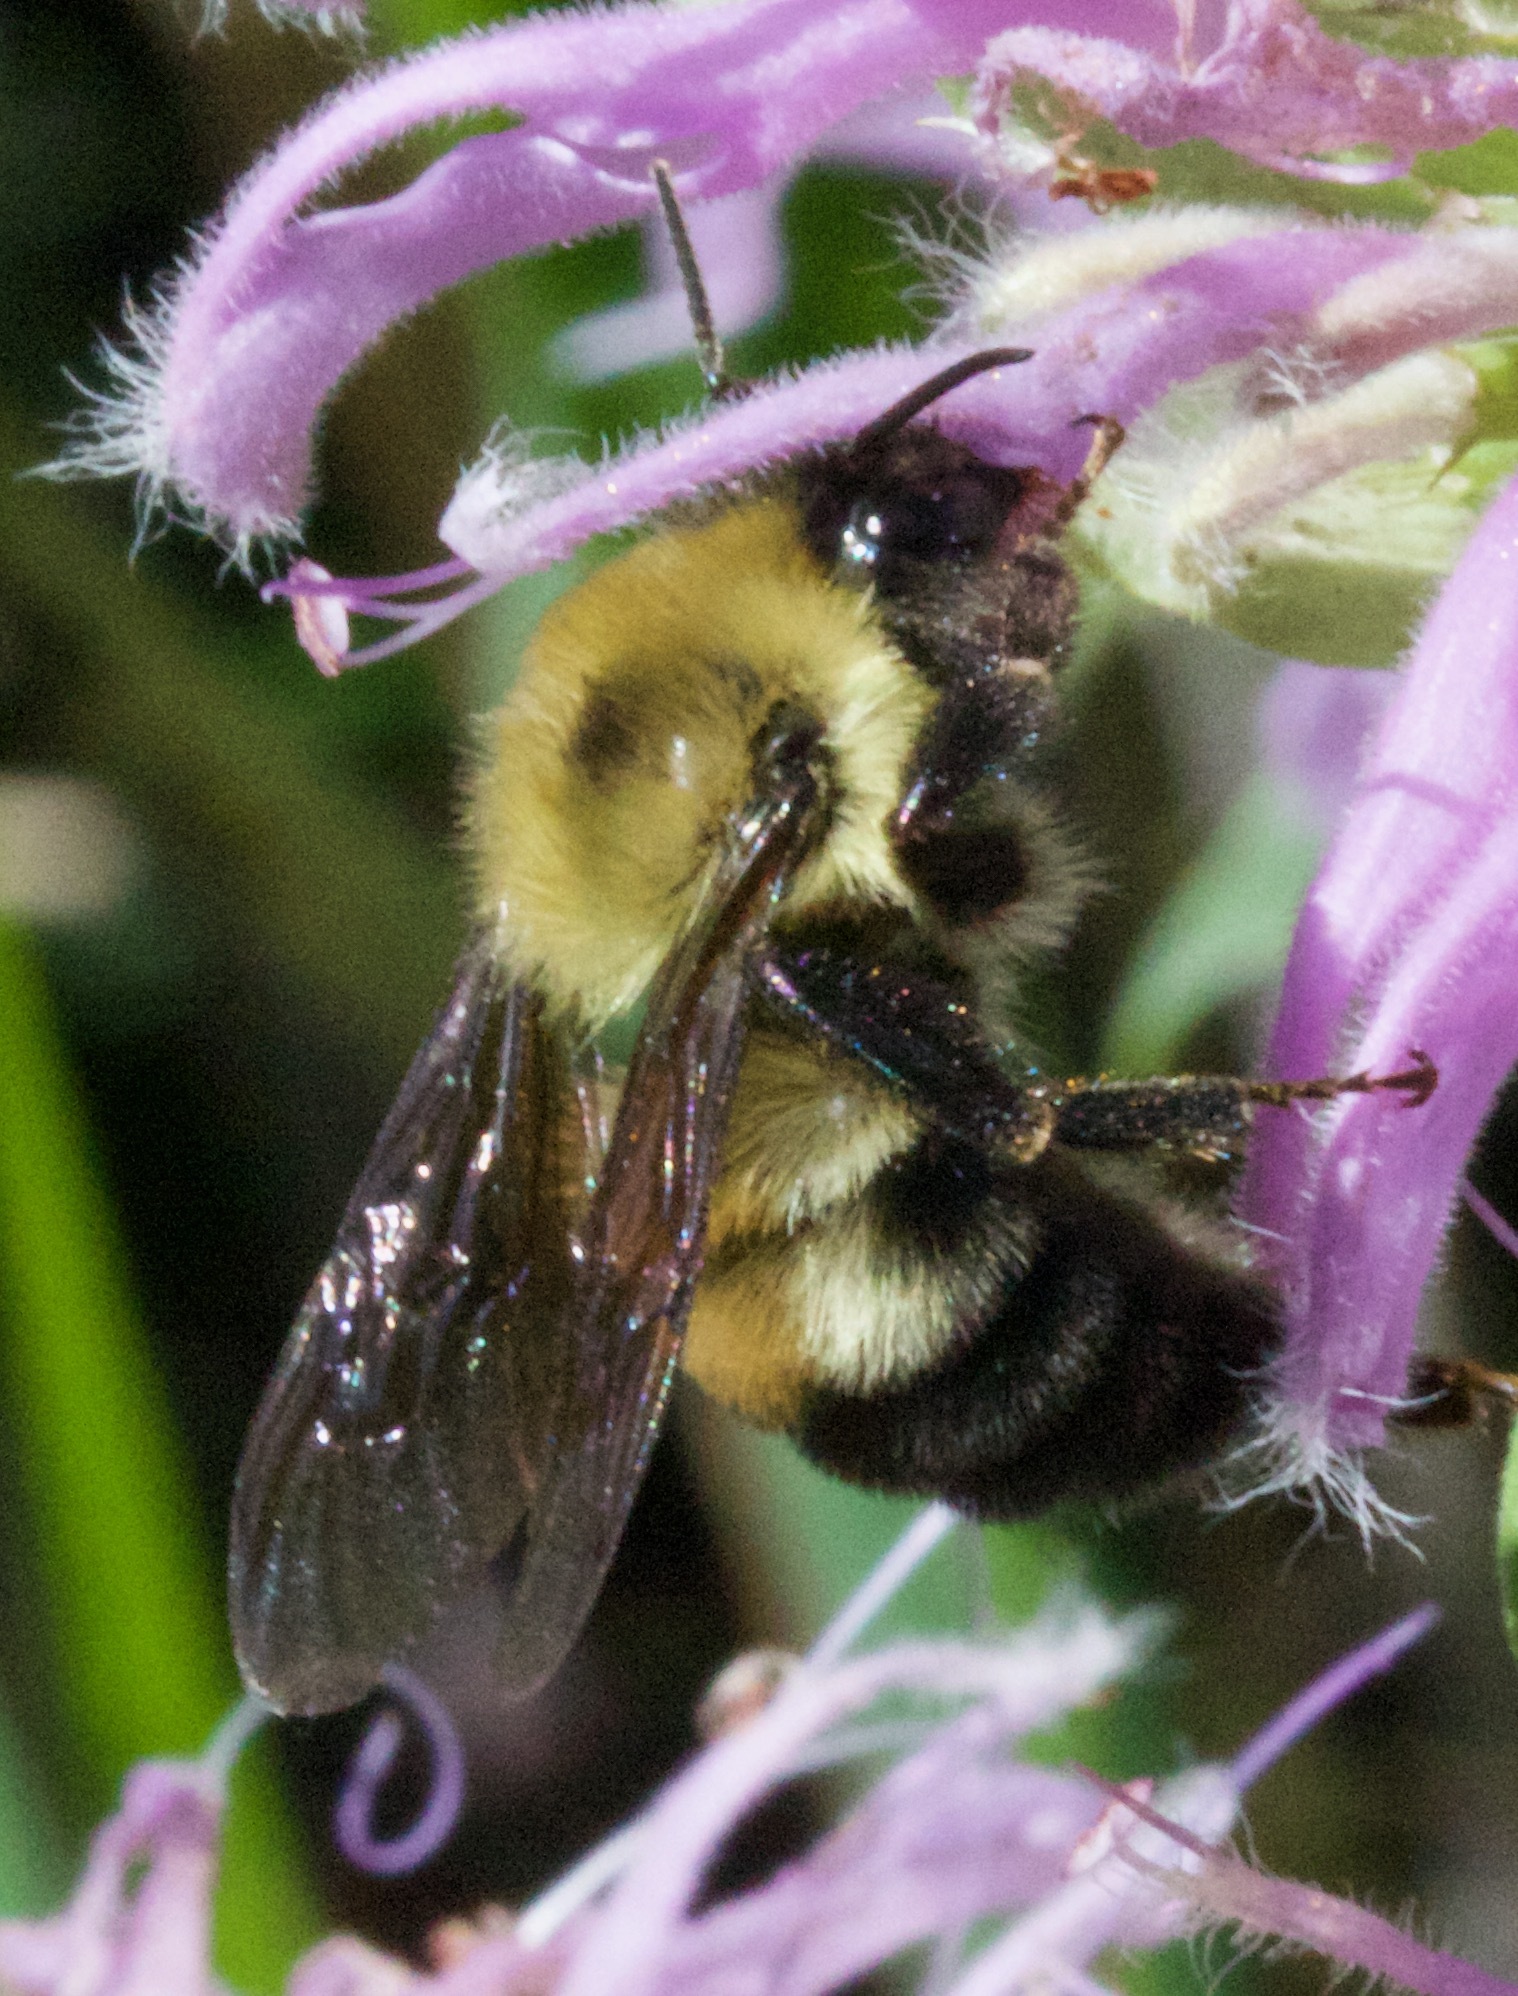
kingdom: Animalia
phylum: Arthropoda
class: Insecta
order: Hymenoptera
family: Apidae
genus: Bombus
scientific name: Bombus bimaculatus
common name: Two-spotted bumble bee
